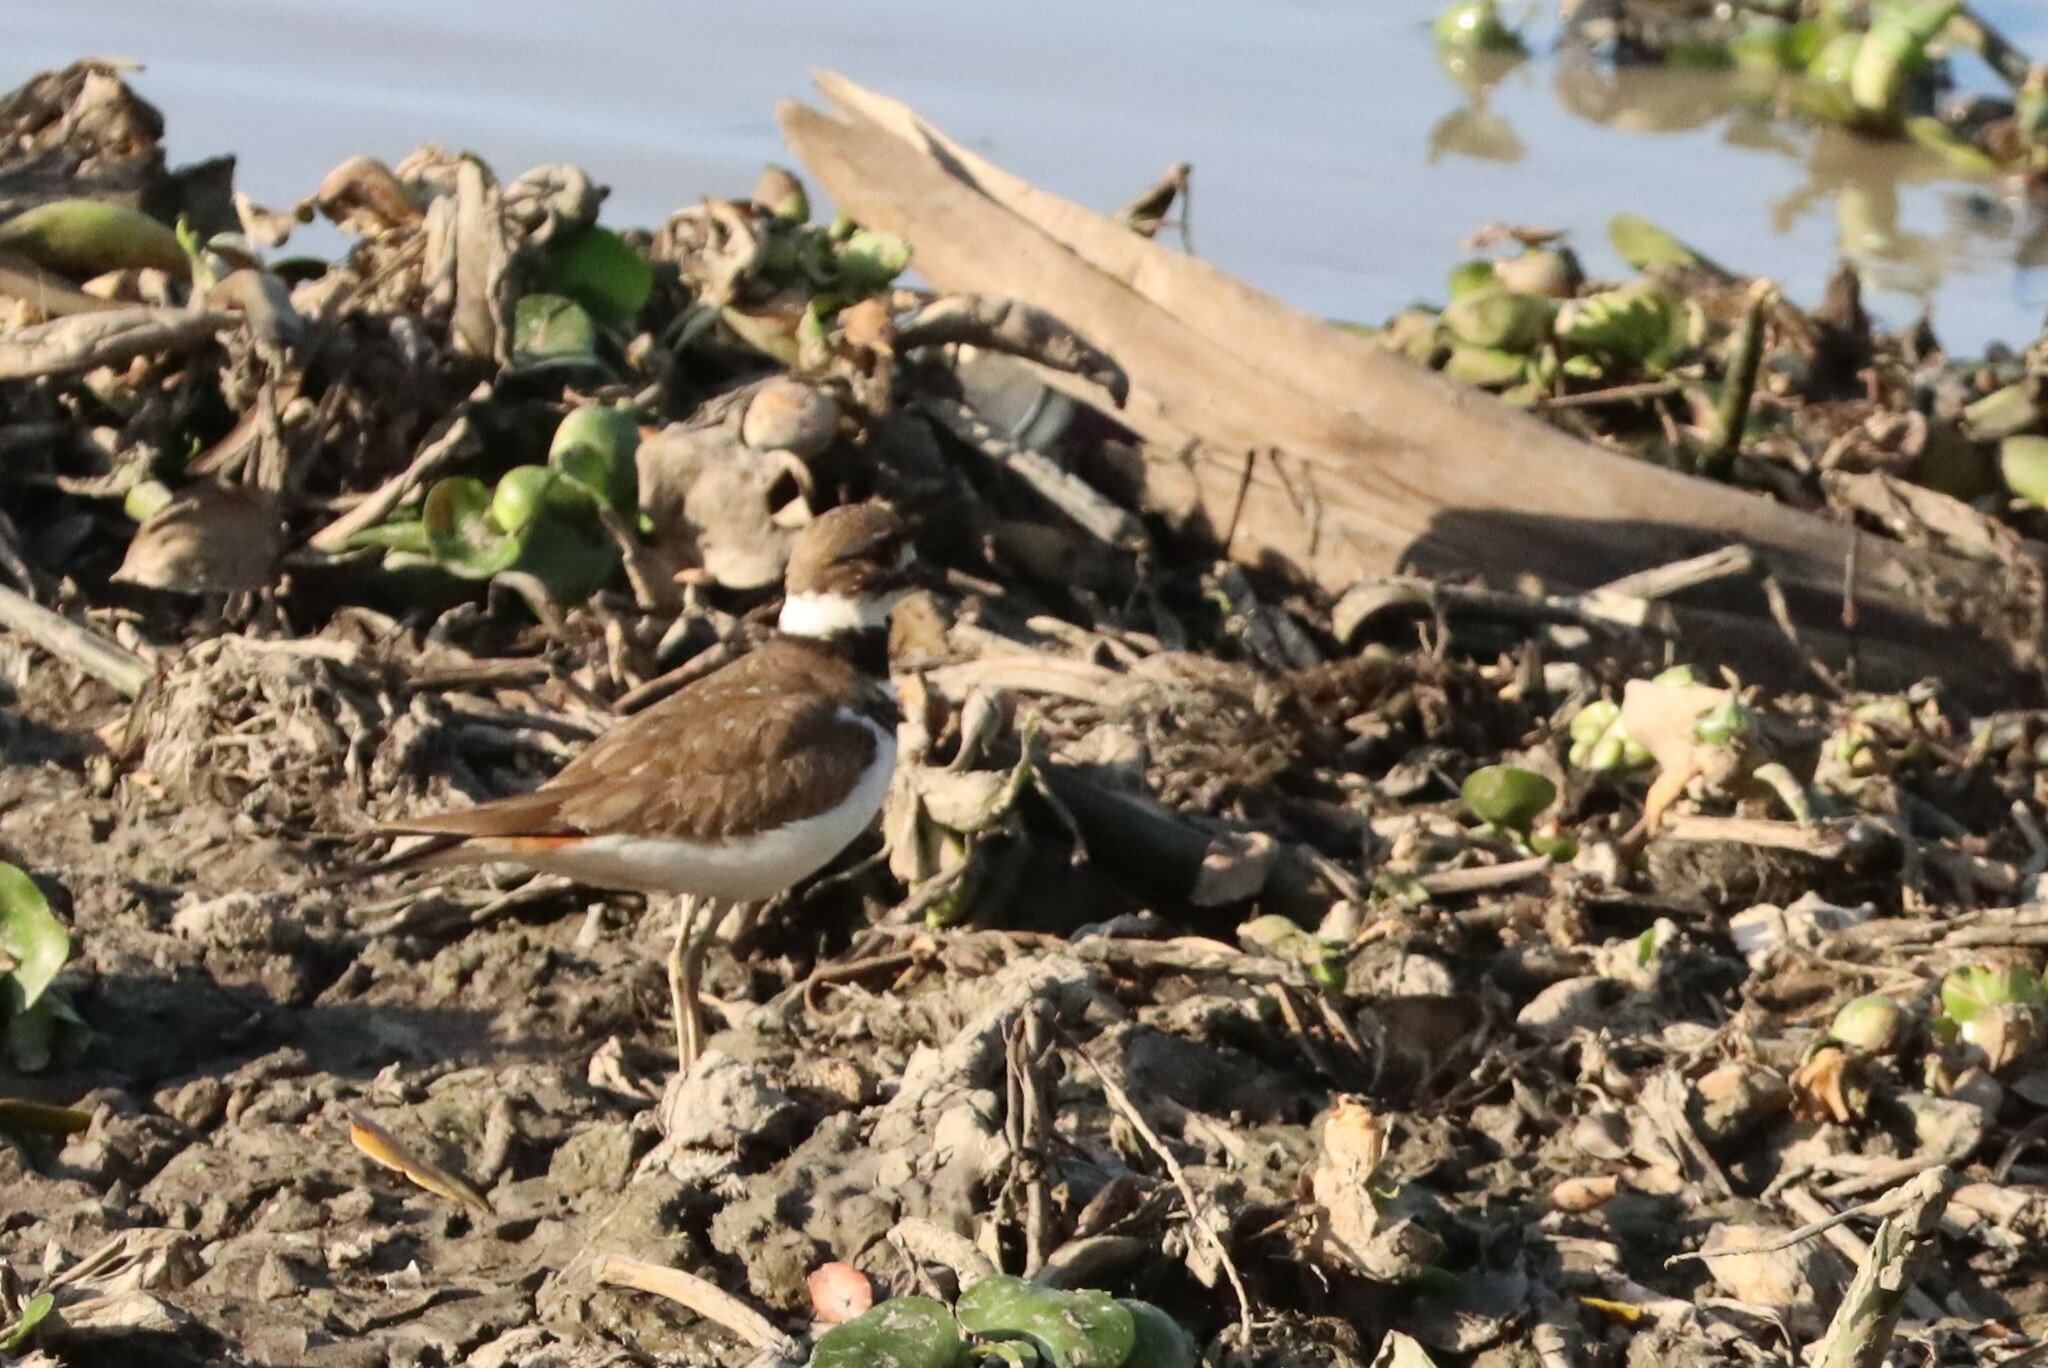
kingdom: Animalia
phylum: Chordata
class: Aves
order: Charadriiformes
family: Charadriidae
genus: Charadrius
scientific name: Charadrius vociferus
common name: Killdeer
